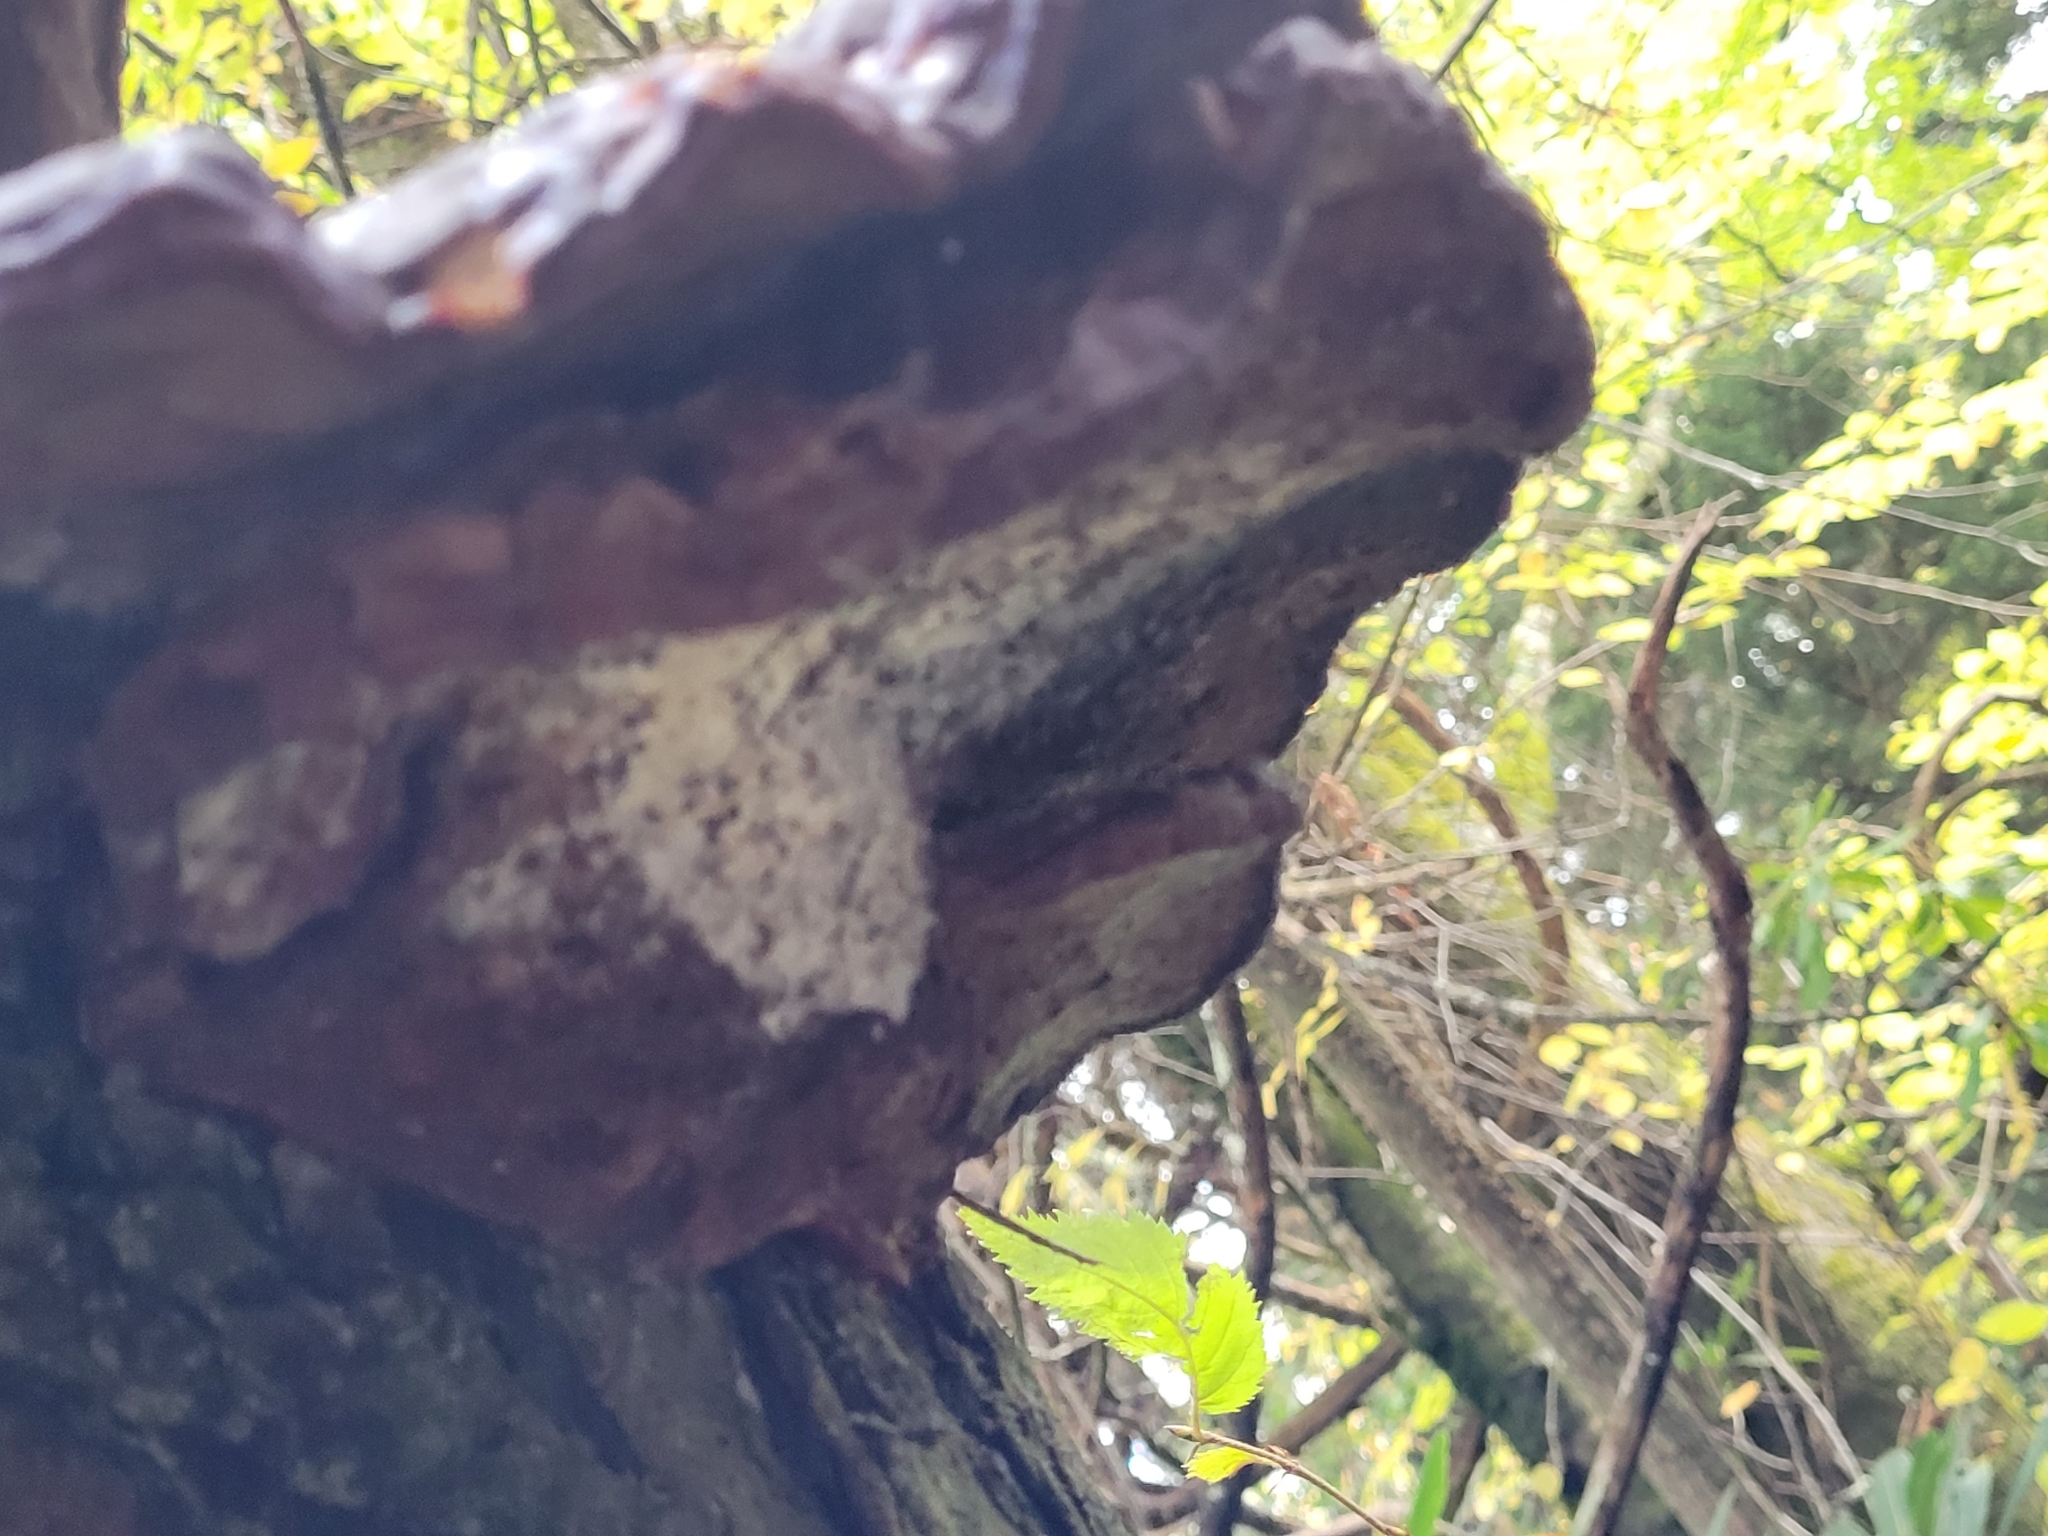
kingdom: Fungi
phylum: Basidiomycota
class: Agaricomycetes
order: Polyporales
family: Polyporaceae
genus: Ganoderma
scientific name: Ganoderma tsugae
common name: Hemlock varnish shelf
